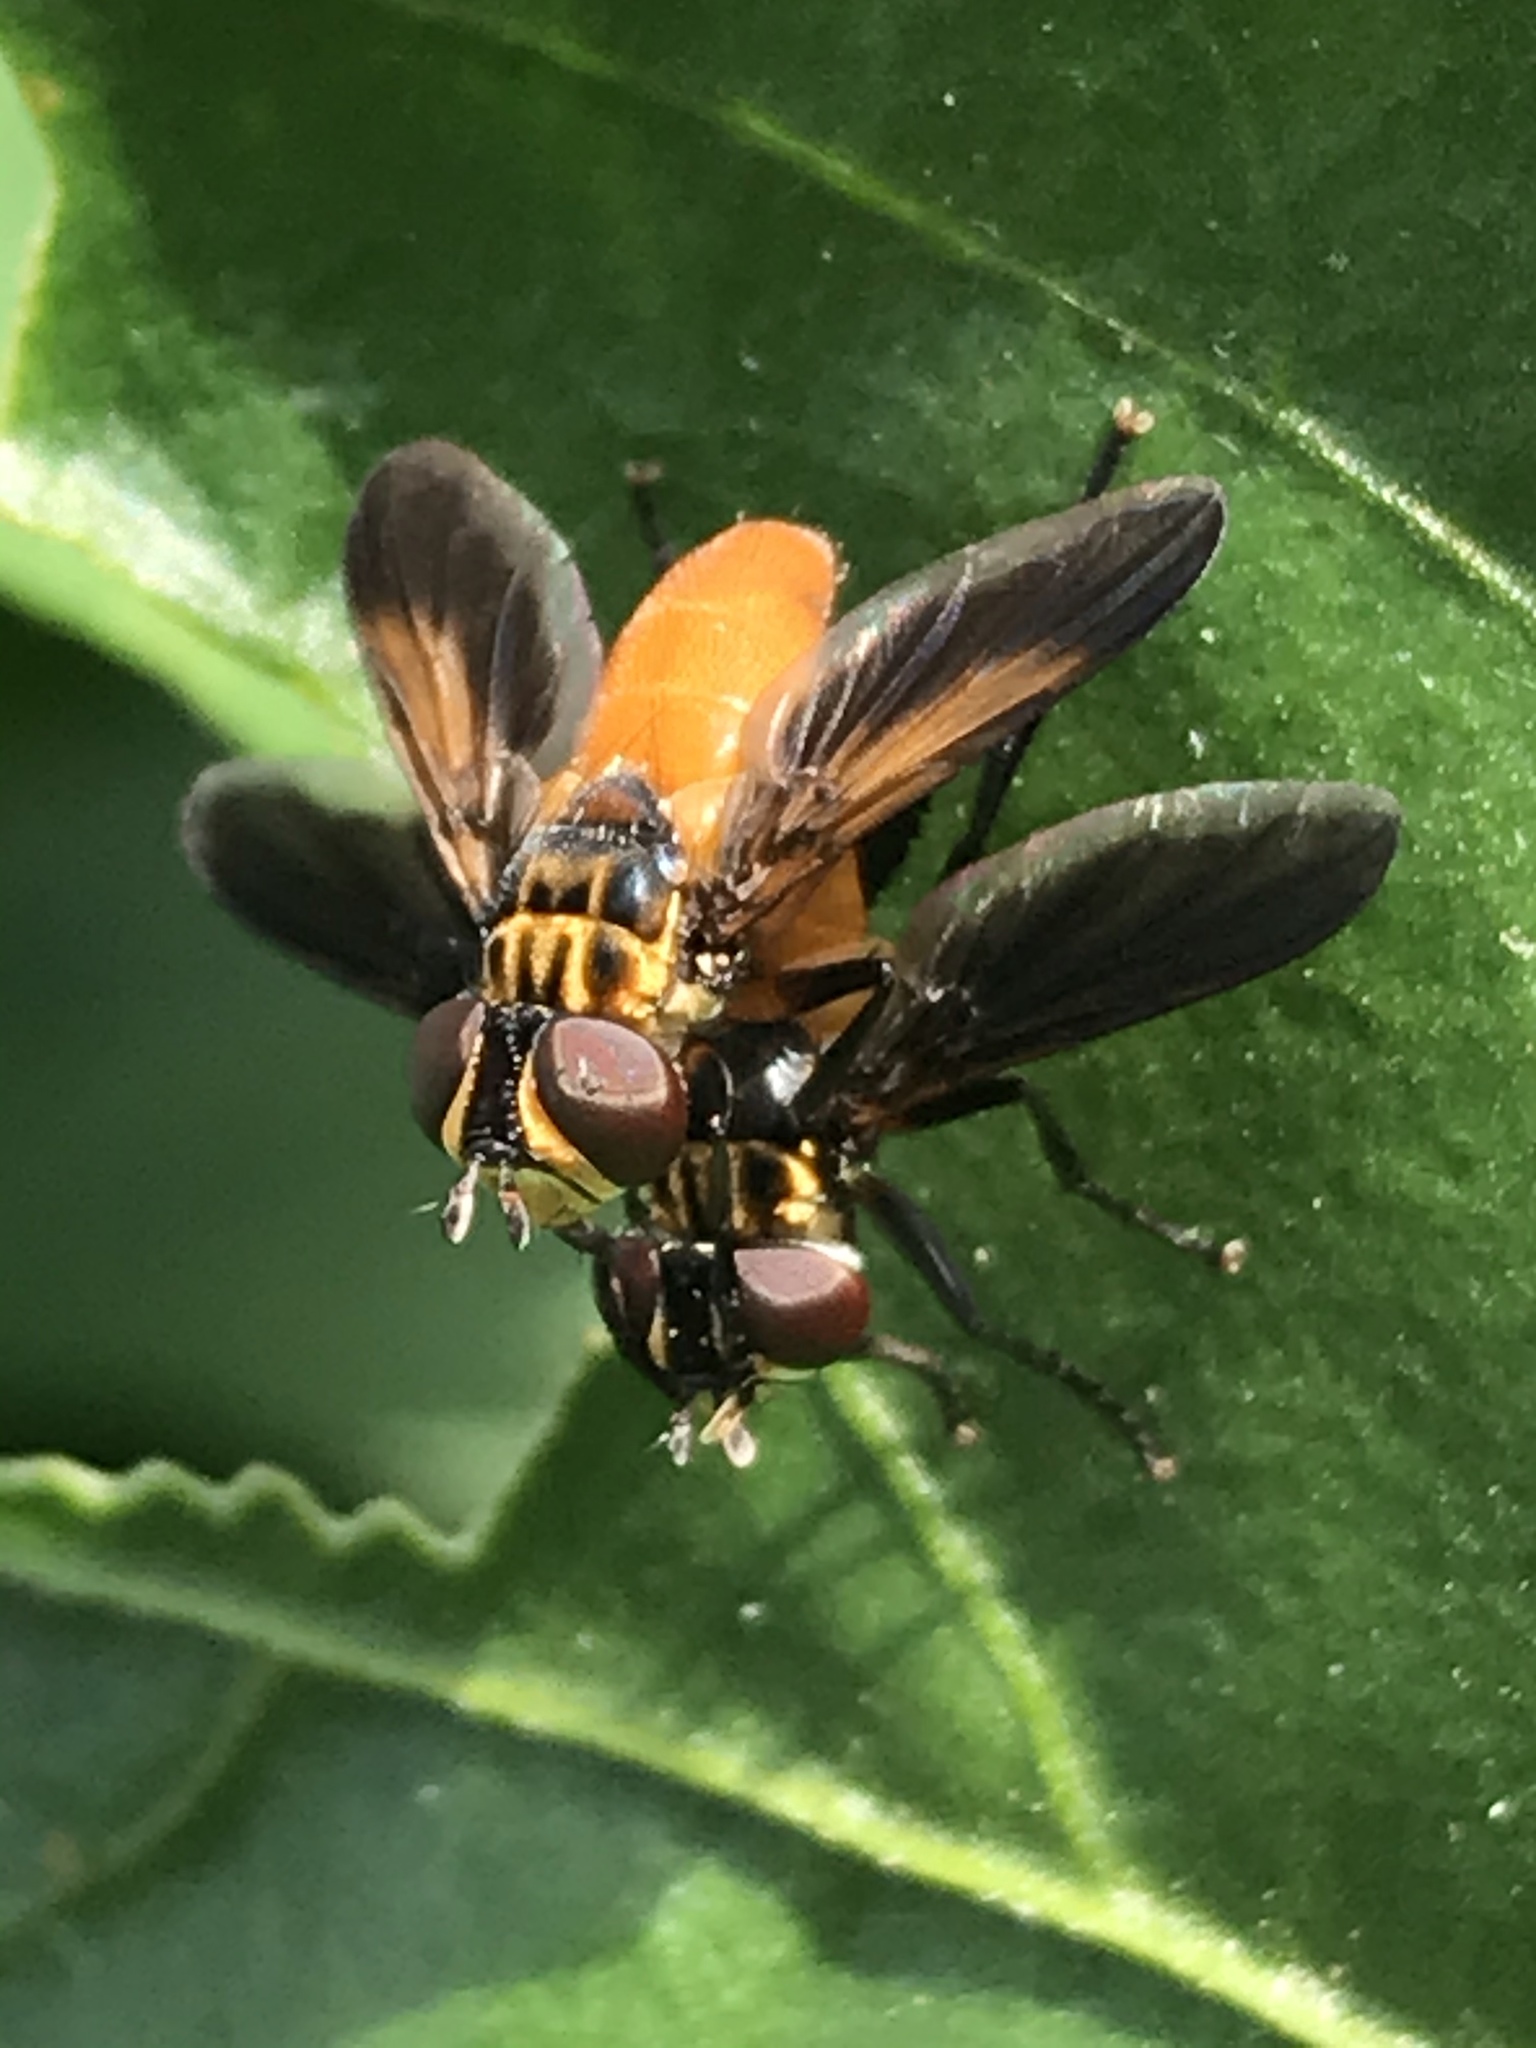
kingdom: Animalia
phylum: Arthropoda
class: Insecta
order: Diptera
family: Tachinidae
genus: Trichopoda
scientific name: Trichopoda pennipes
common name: Tachinid fly
